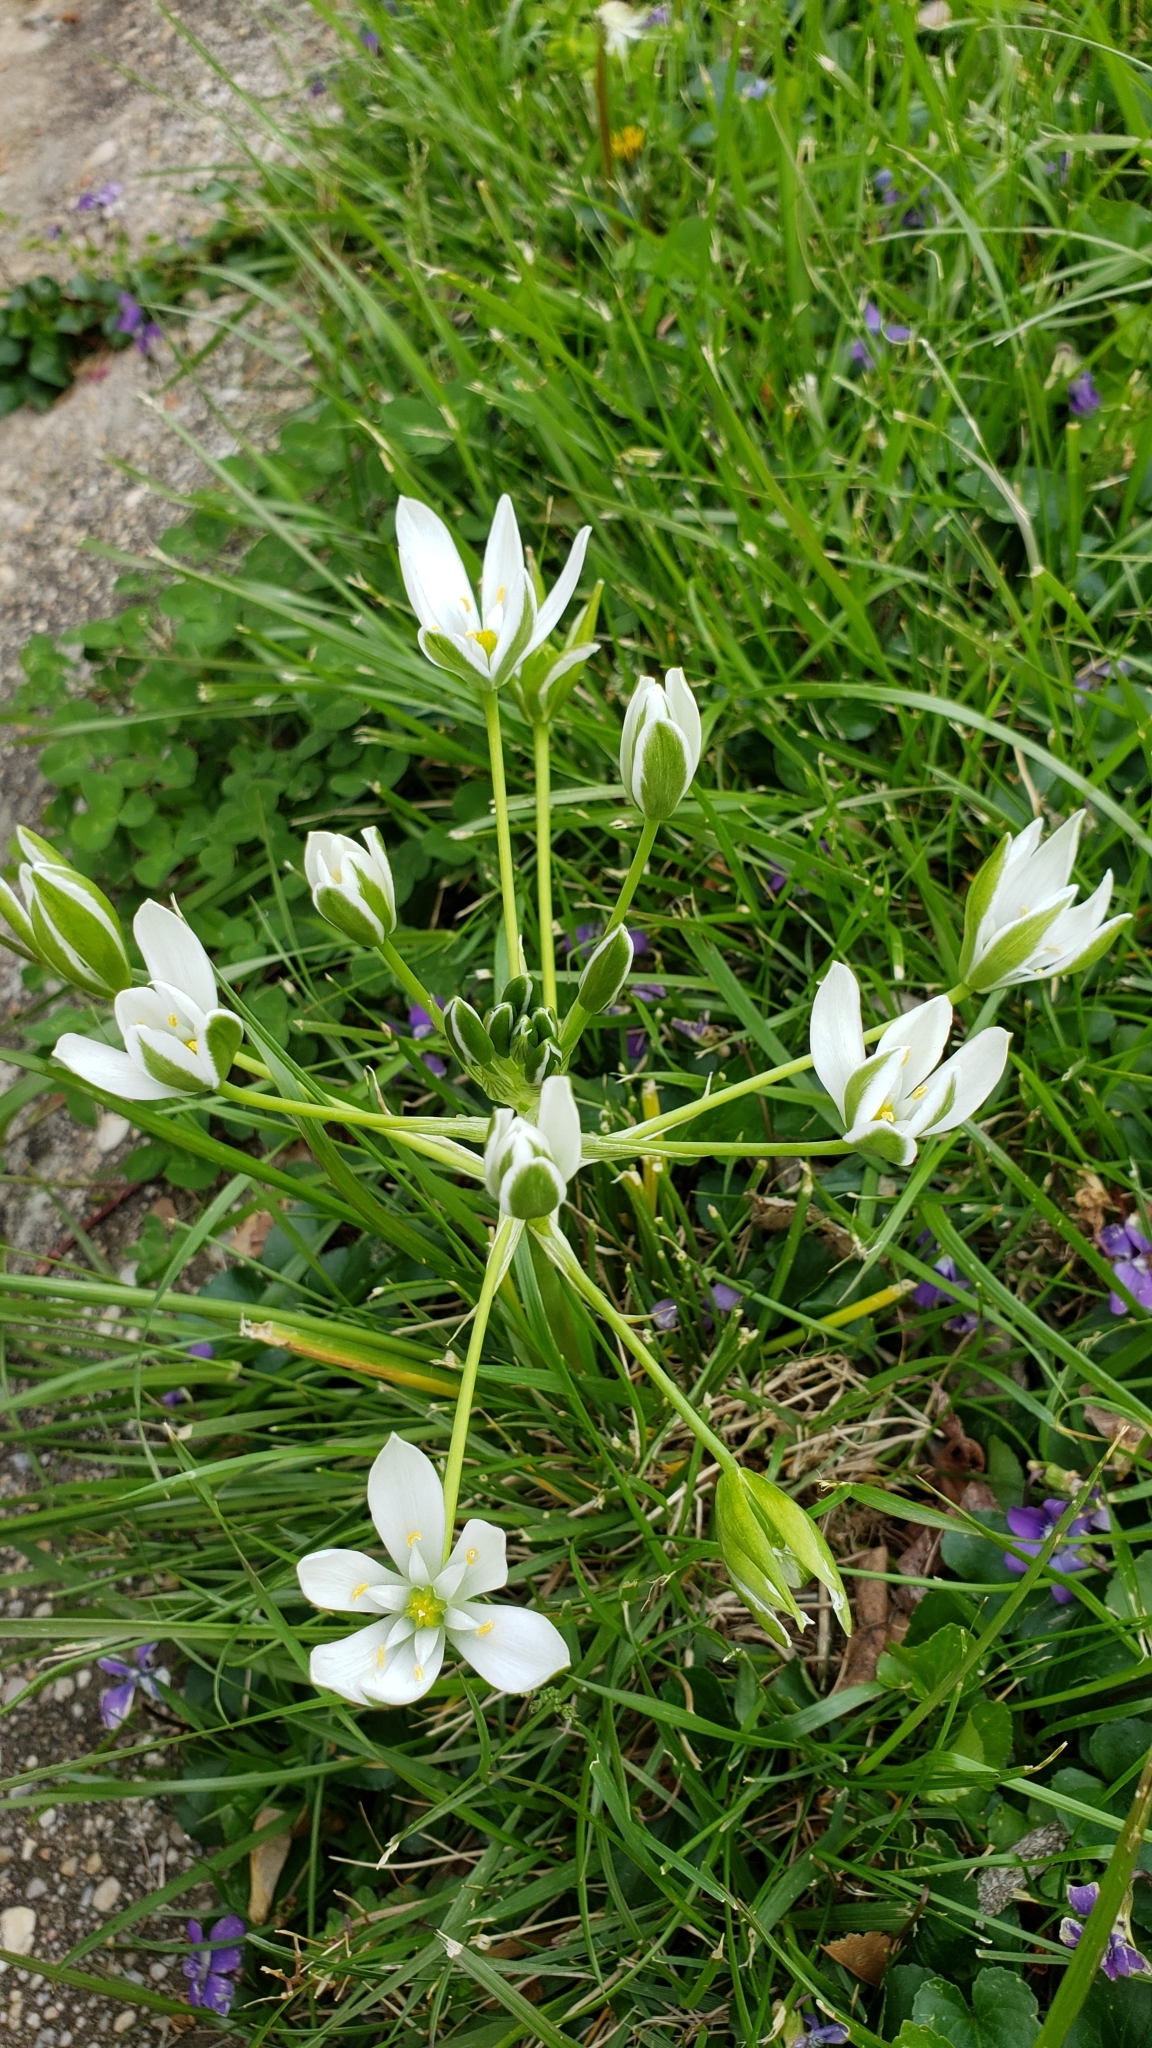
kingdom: Plantae
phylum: Tracheophyta
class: Liliopsida
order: Asparagales
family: Asparagaceae
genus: Ornithogalum
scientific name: Ornithogalum umbellatum
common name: Garden star-of-bethlehem
